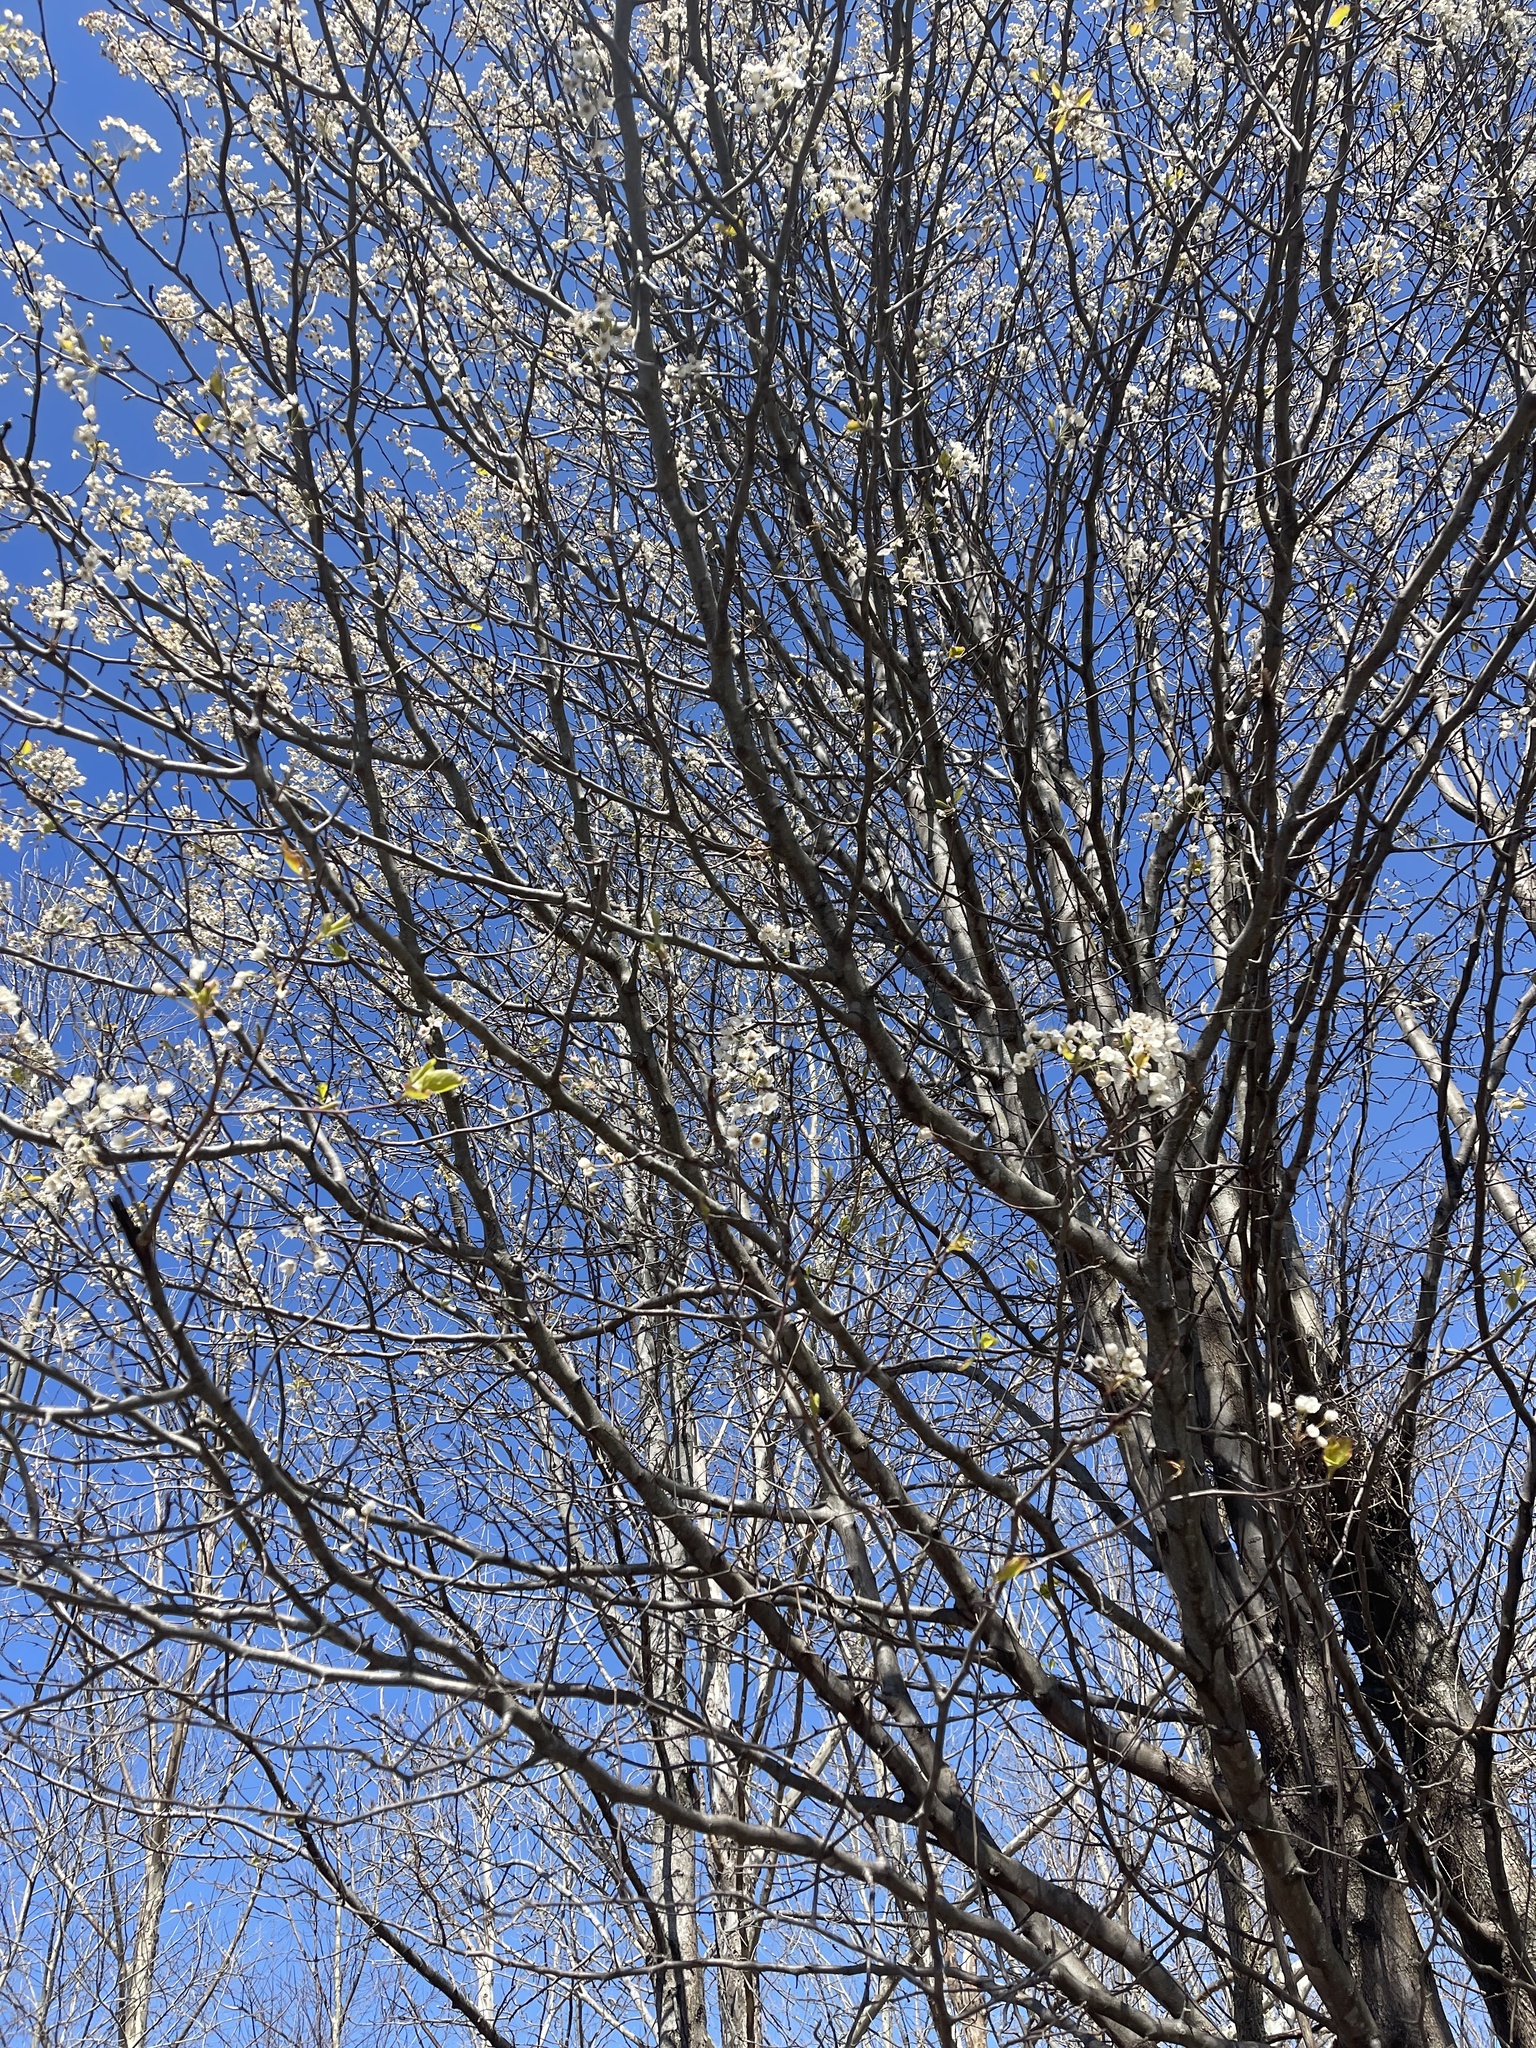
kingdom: Plantae
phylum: Tracheophyta
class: Magnoliopsida
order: Rosales
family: Rosaceae
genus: Pyrus
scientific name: Pyrus calleryana
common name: Callery pear
